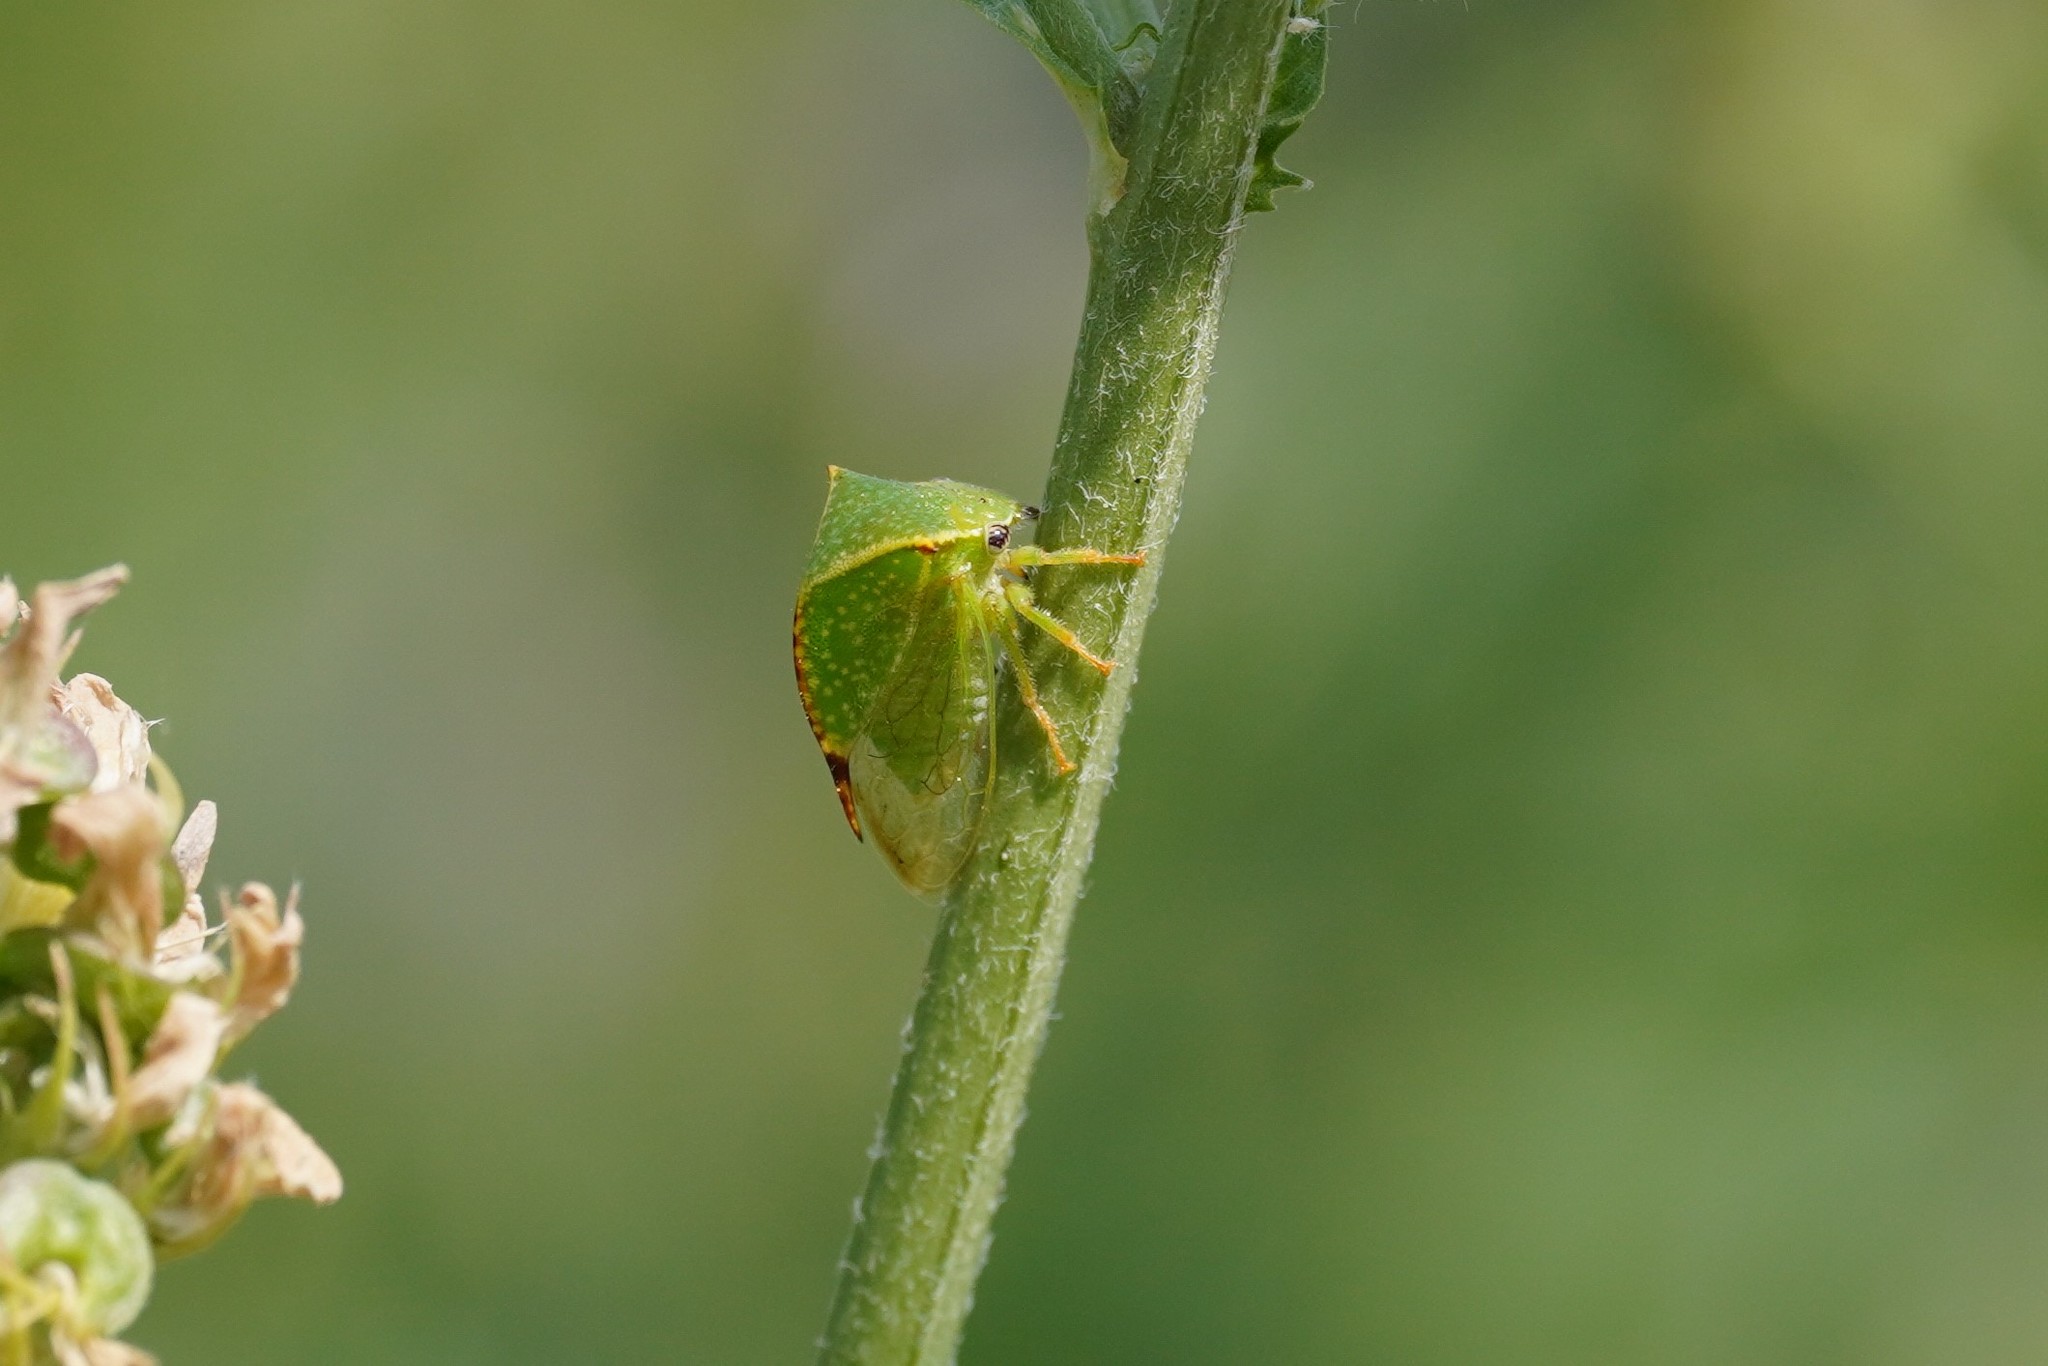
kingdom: Animalia
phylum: Arthropoda
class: Insecta
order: Hemiptera
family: Membracidae
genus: Stictocephala
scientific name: Stictocephala bisonia
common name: American buffalo treehopper
